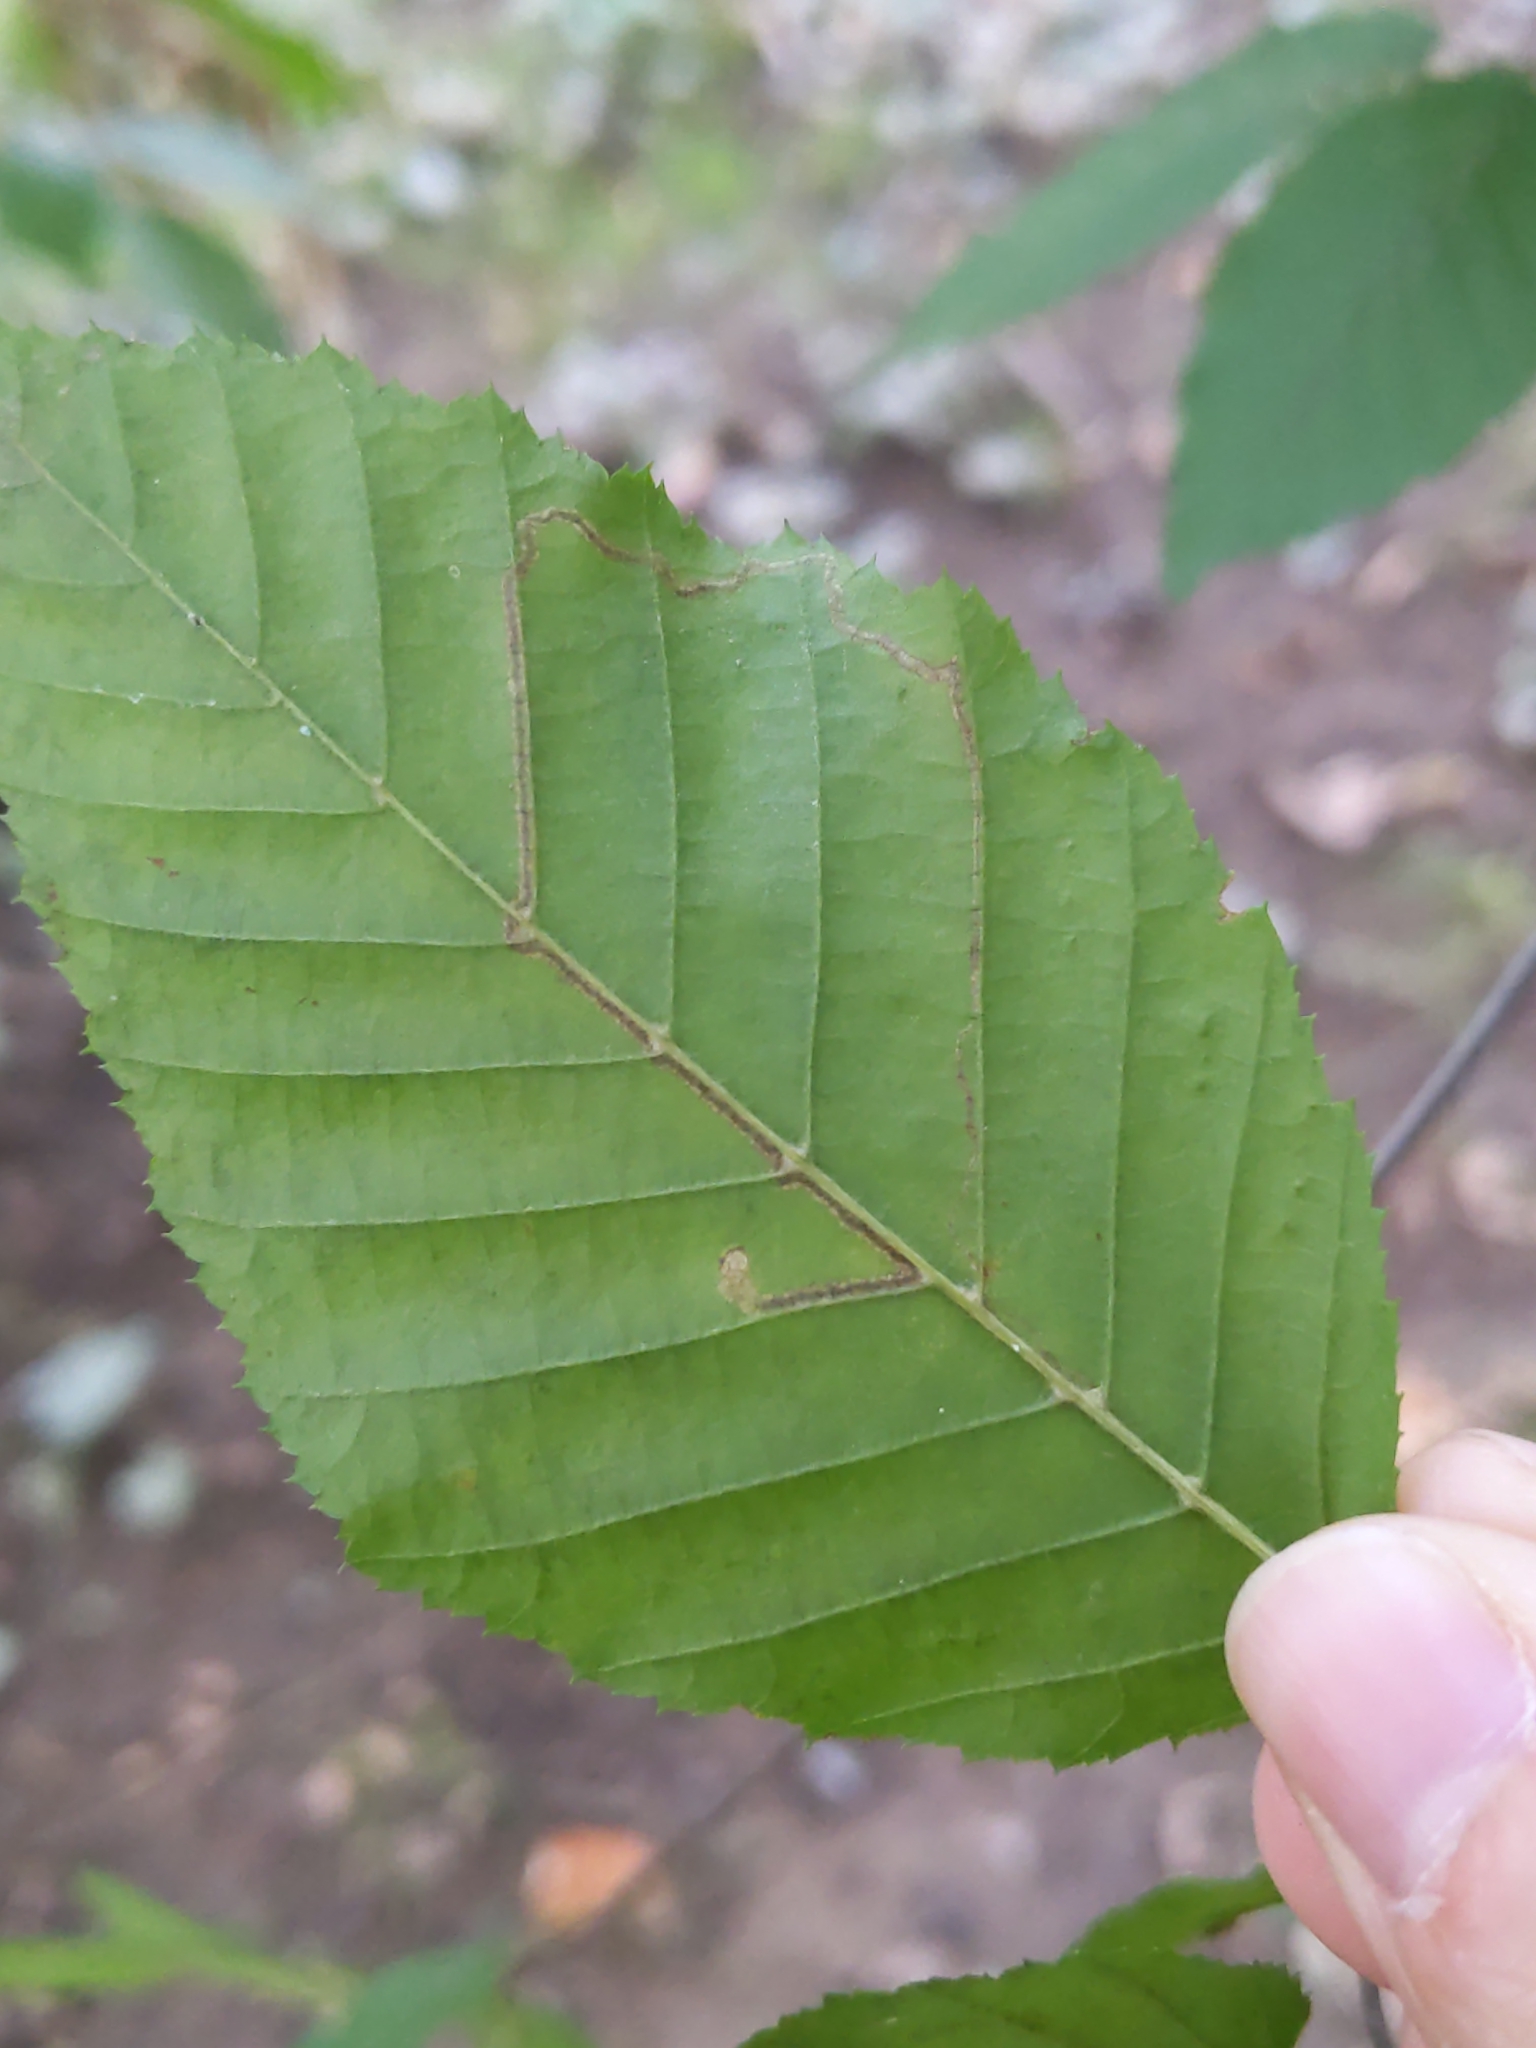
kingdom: Animalia
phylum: Arthropoda
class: Insecta
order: Lepidoptera
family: Nepticulidae
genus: Stigmella
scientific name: Stigmella betulicola
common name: Common birch pigmy
